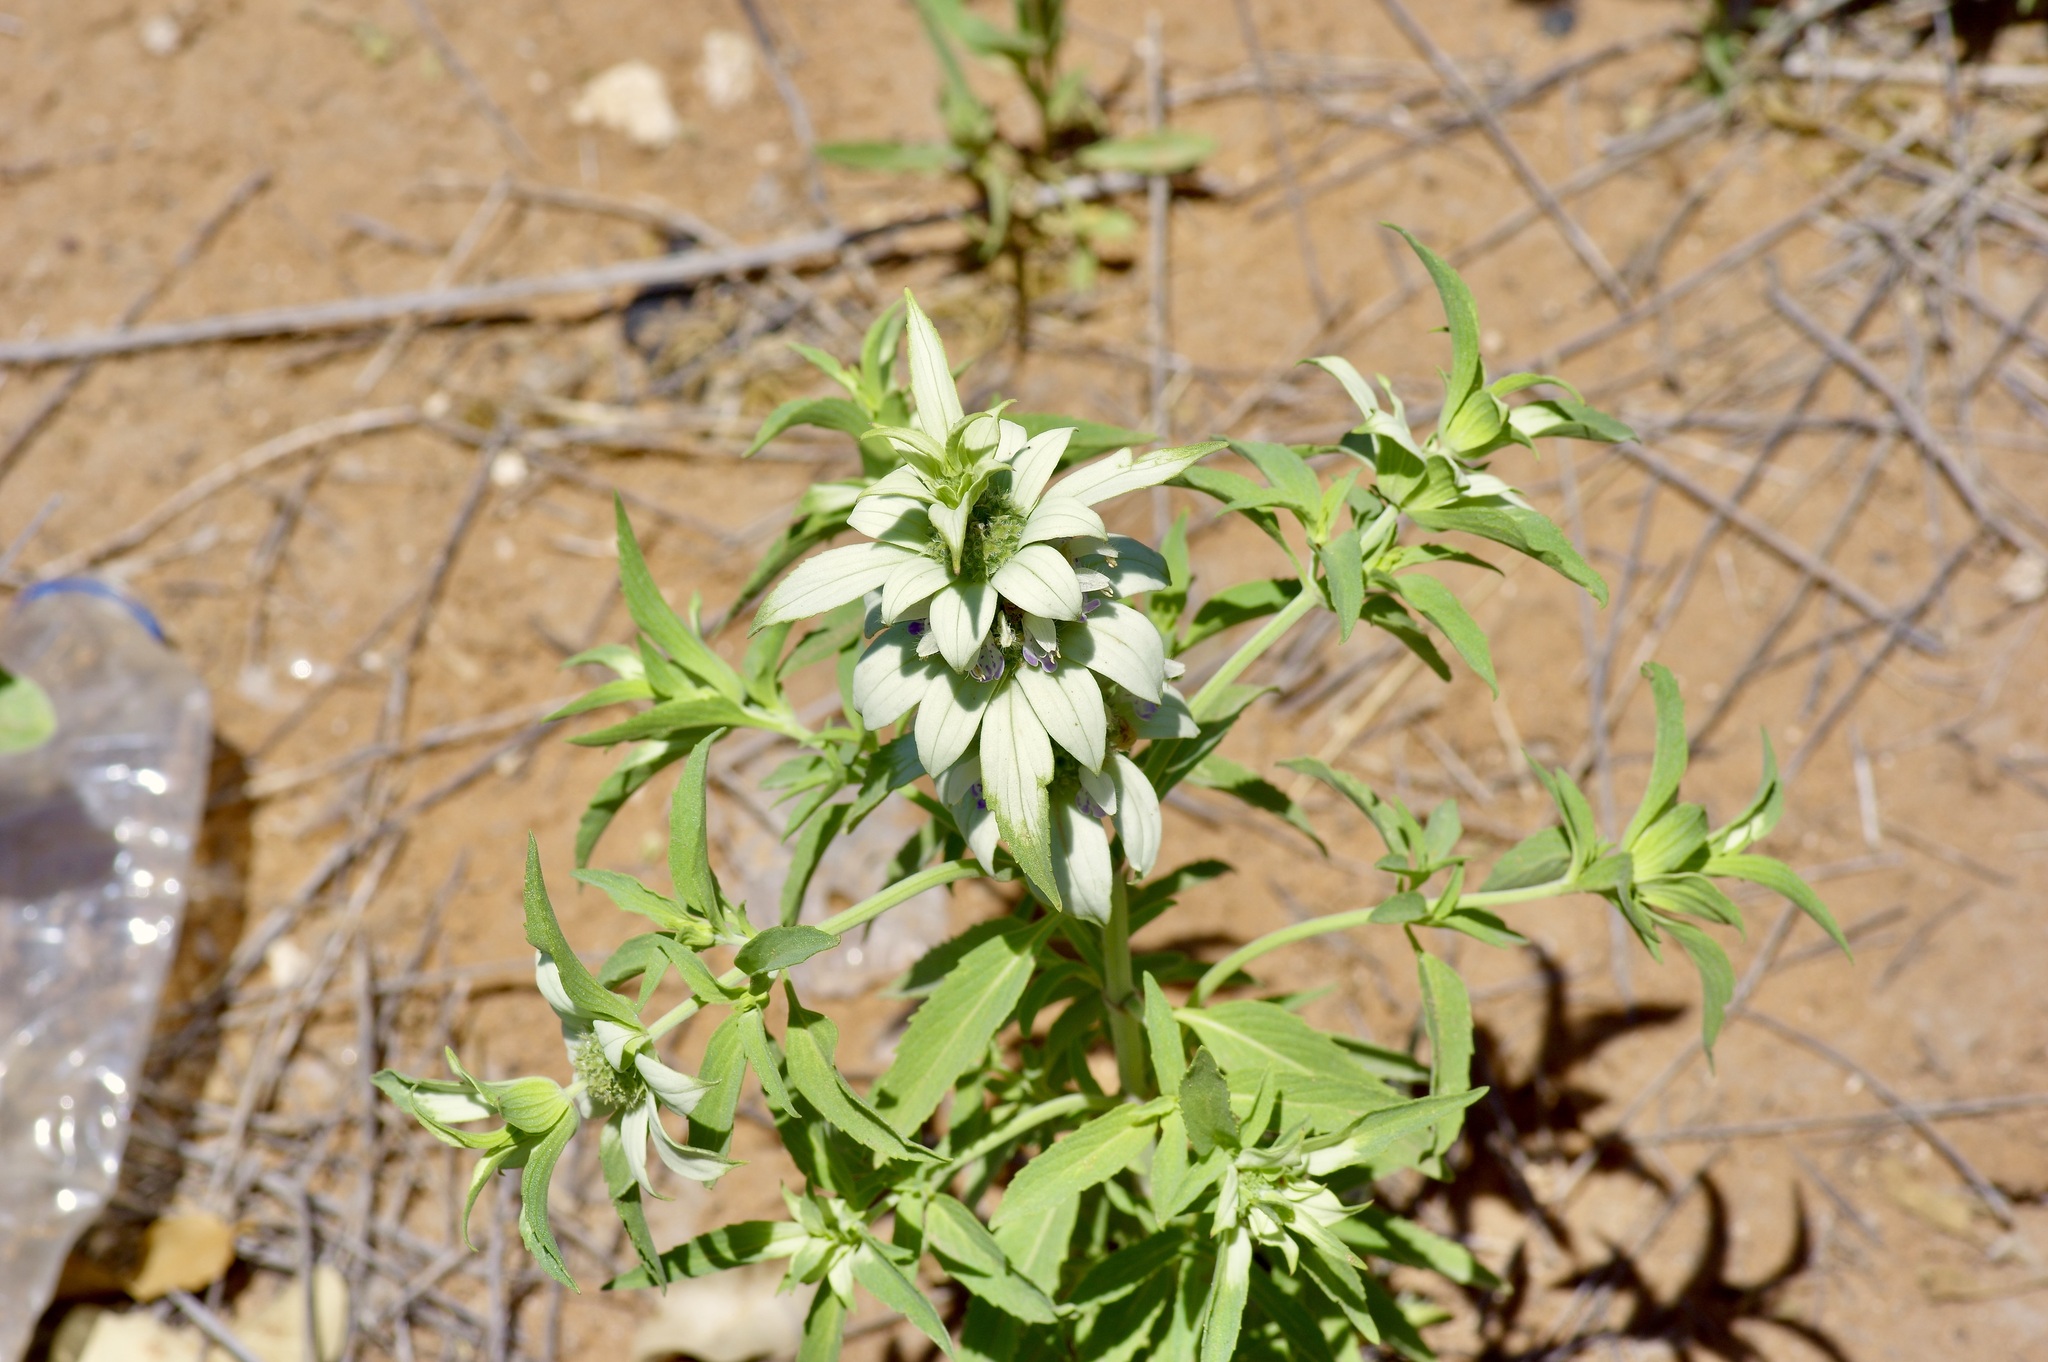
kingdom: Plantae
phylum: Tracheophyta
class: Magnoliopsida
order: Lamiales
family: Lamiaceae
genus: Monarda
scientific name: Monarda punctata
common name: Dotted monarda
